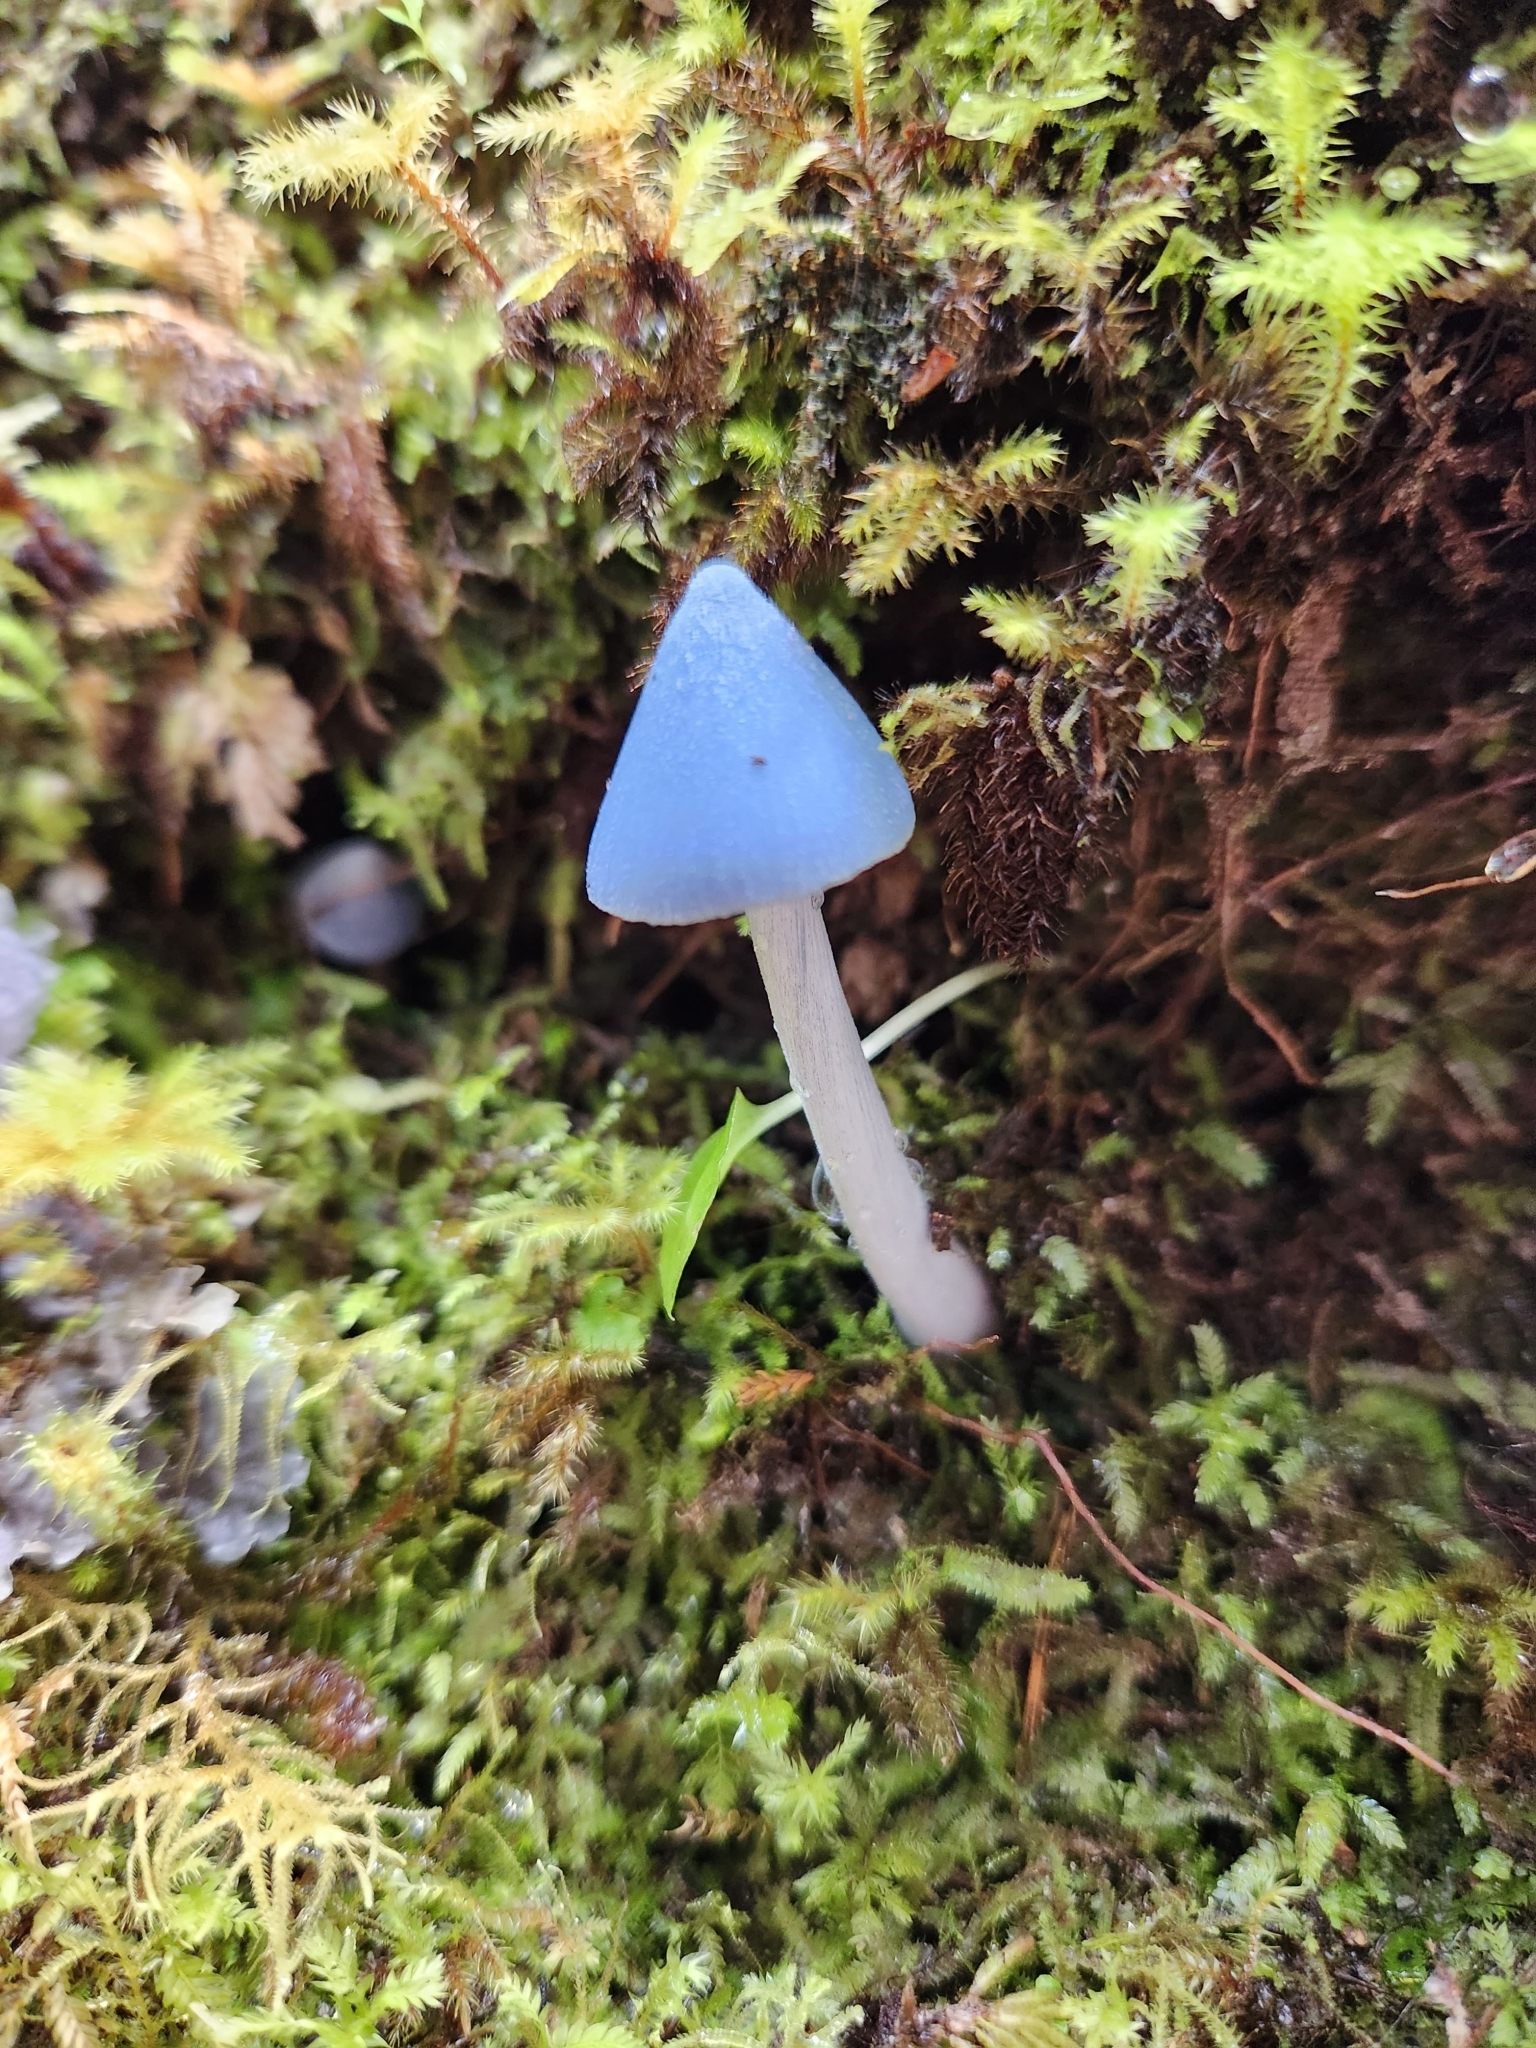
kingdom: Fungi
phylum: Basidiomycota
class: Agaricomycetes
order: Agaricales
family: Entolomataceae
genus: Entoloma
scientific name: Entoloma hochstetteri
